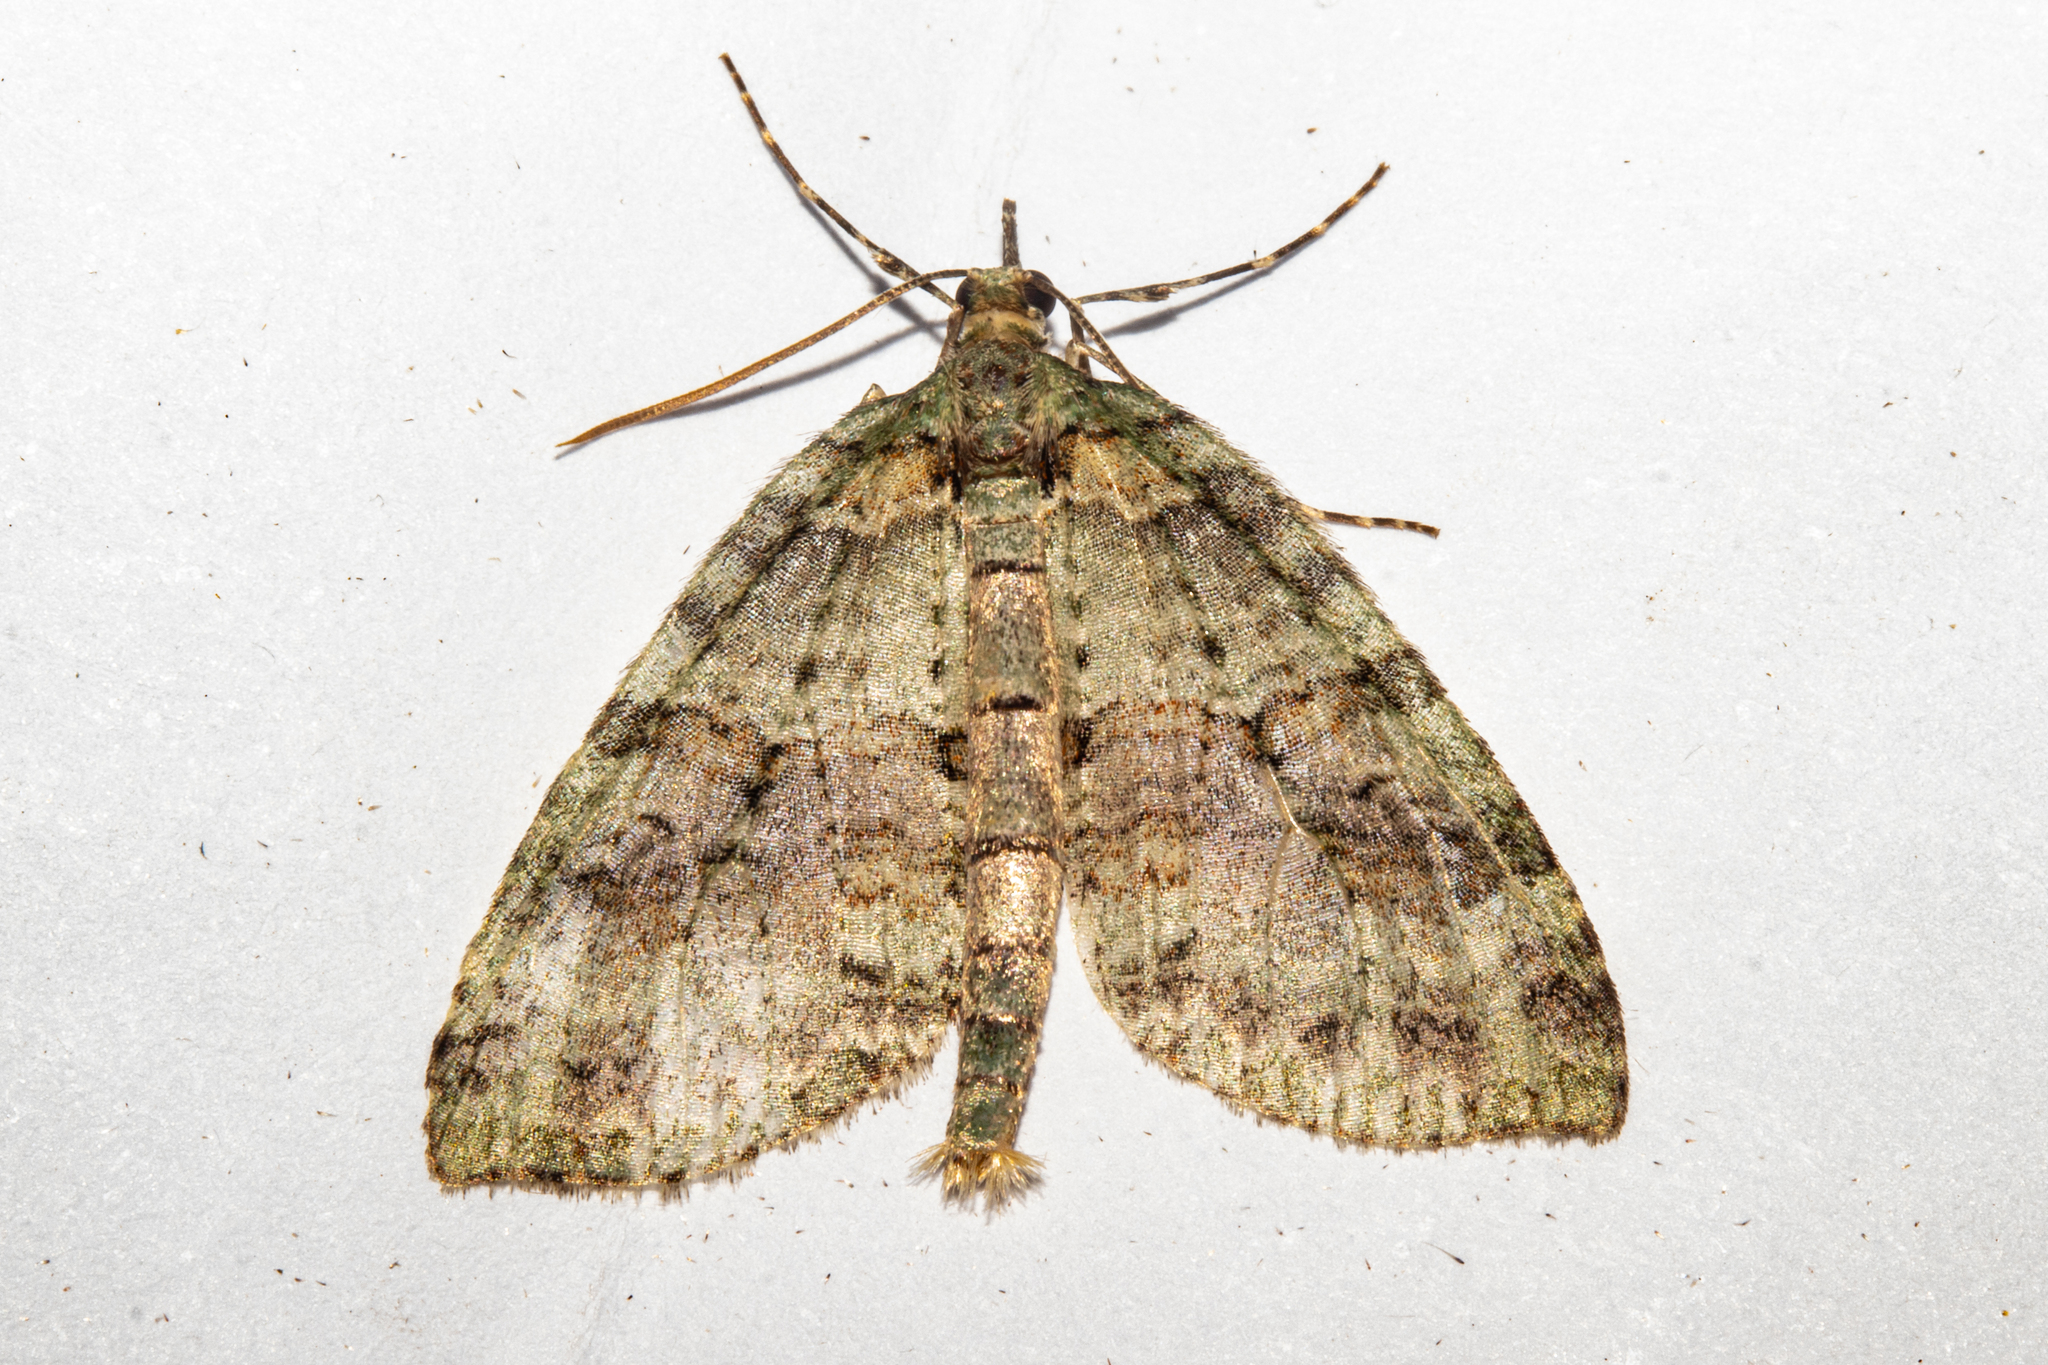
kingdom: Animalia
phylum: Arthropoda
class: Insecta
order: Lepidoptera
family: Geometridae
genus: Tatosoma
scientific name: Tatosoma fasciata
